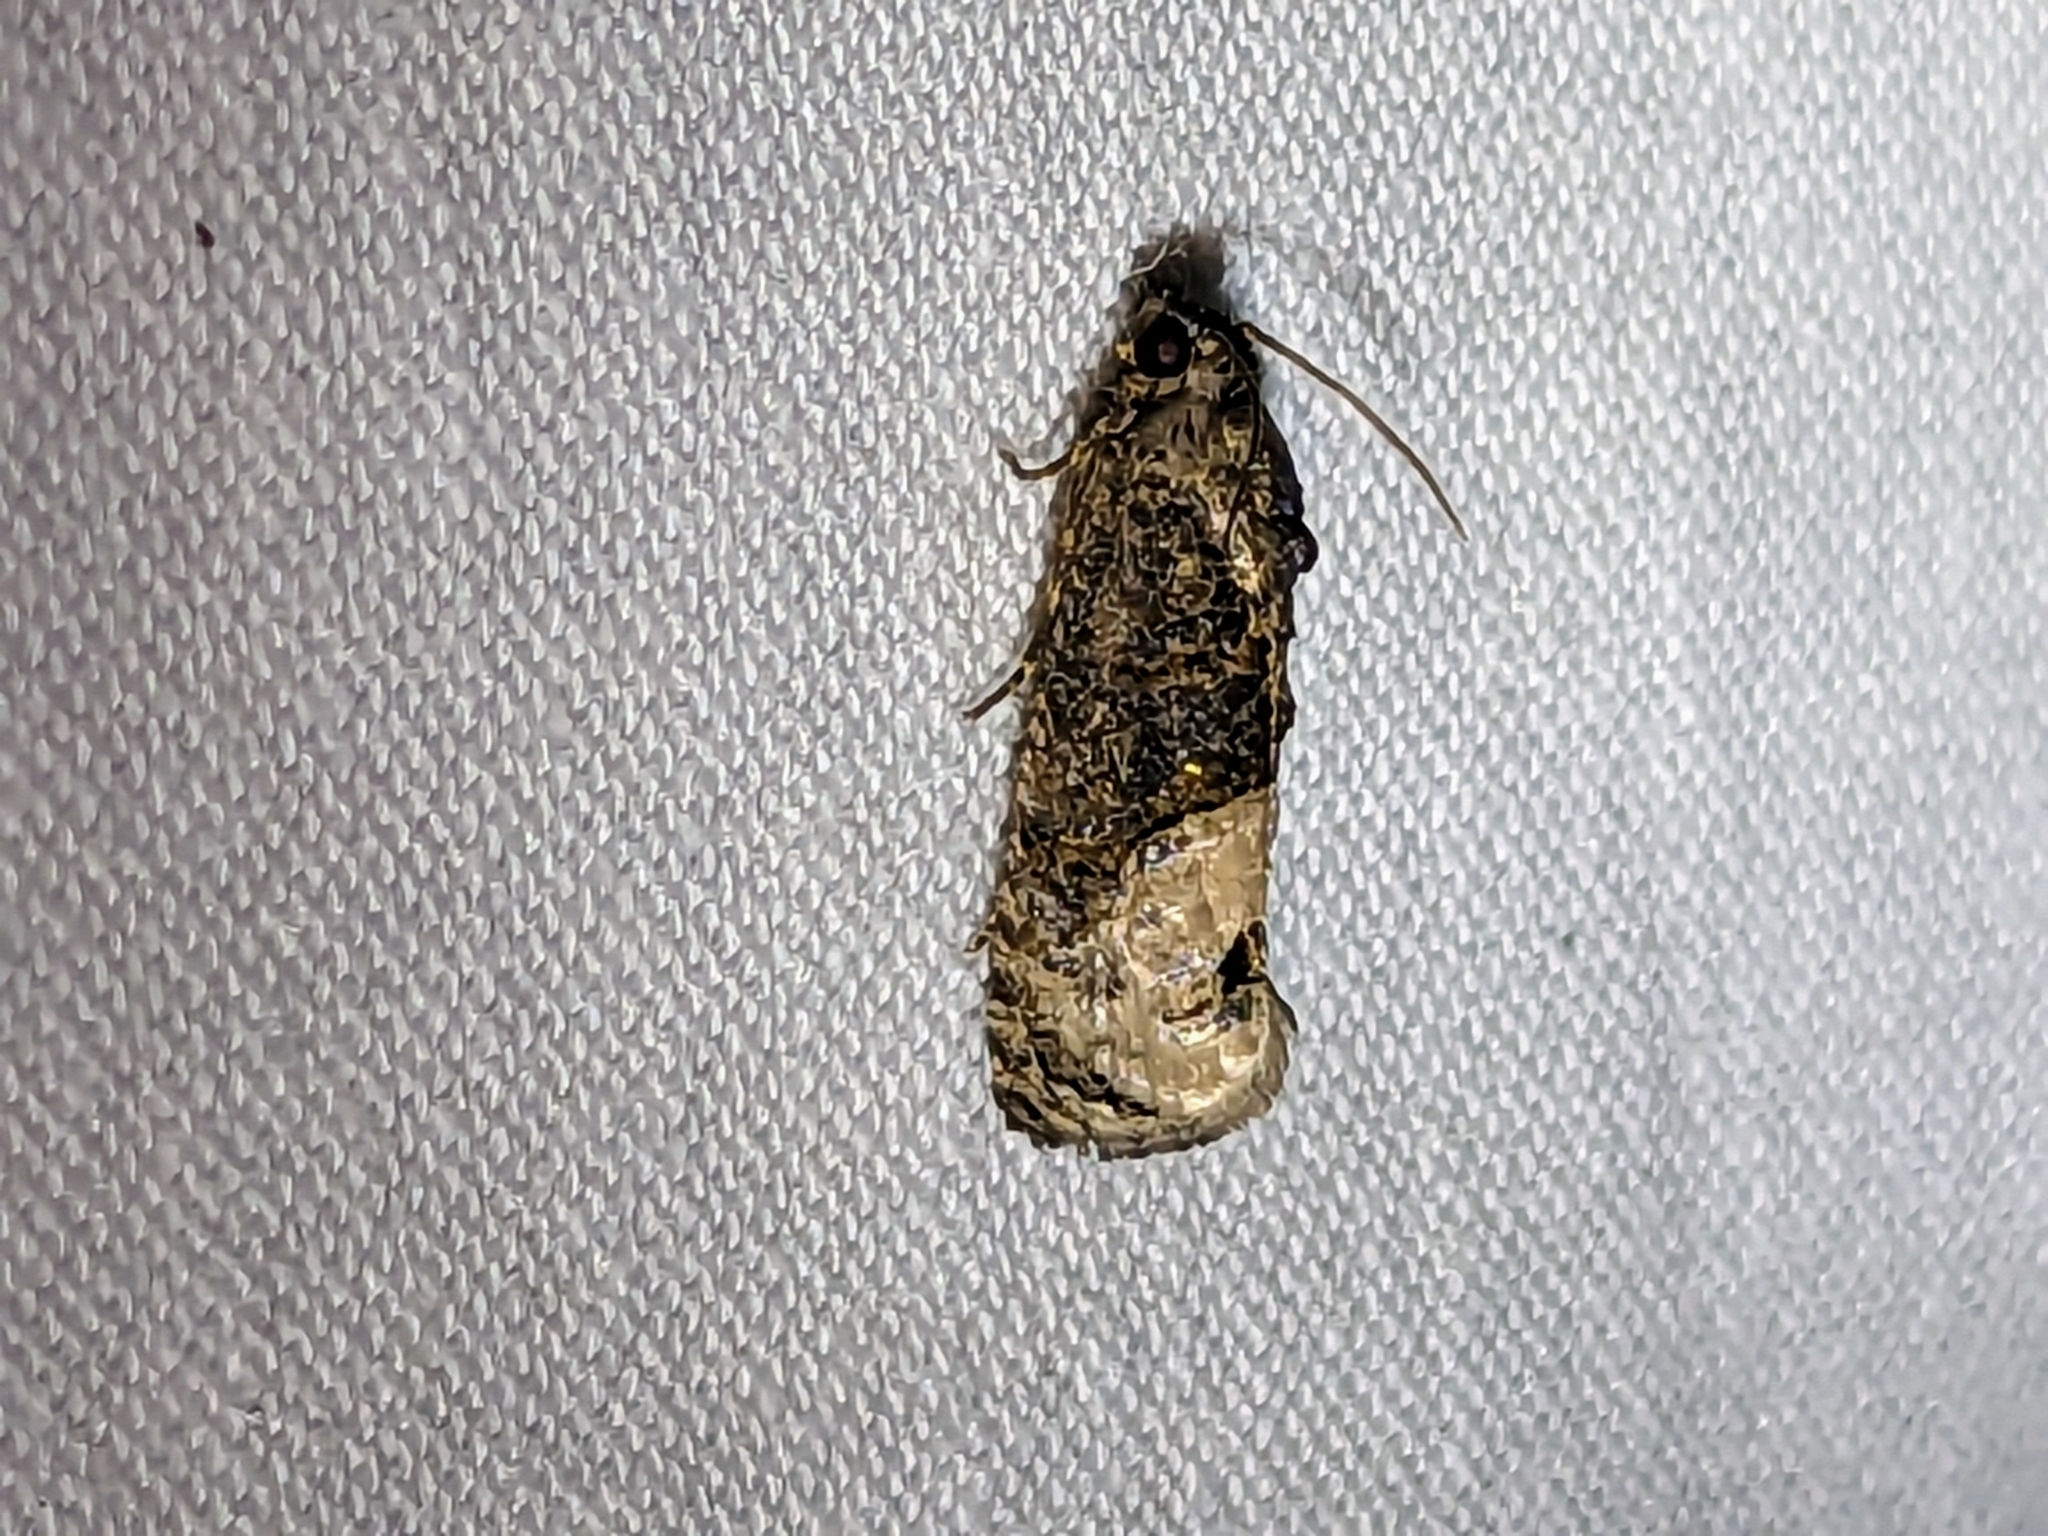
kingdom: Animalia
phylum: Arthropoda
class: Insecta
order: Lepidoptera
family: Tortricidae
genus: Ecdytolopha
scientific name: Ecdytolopha insiticiana
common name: Locust twig borer moth
